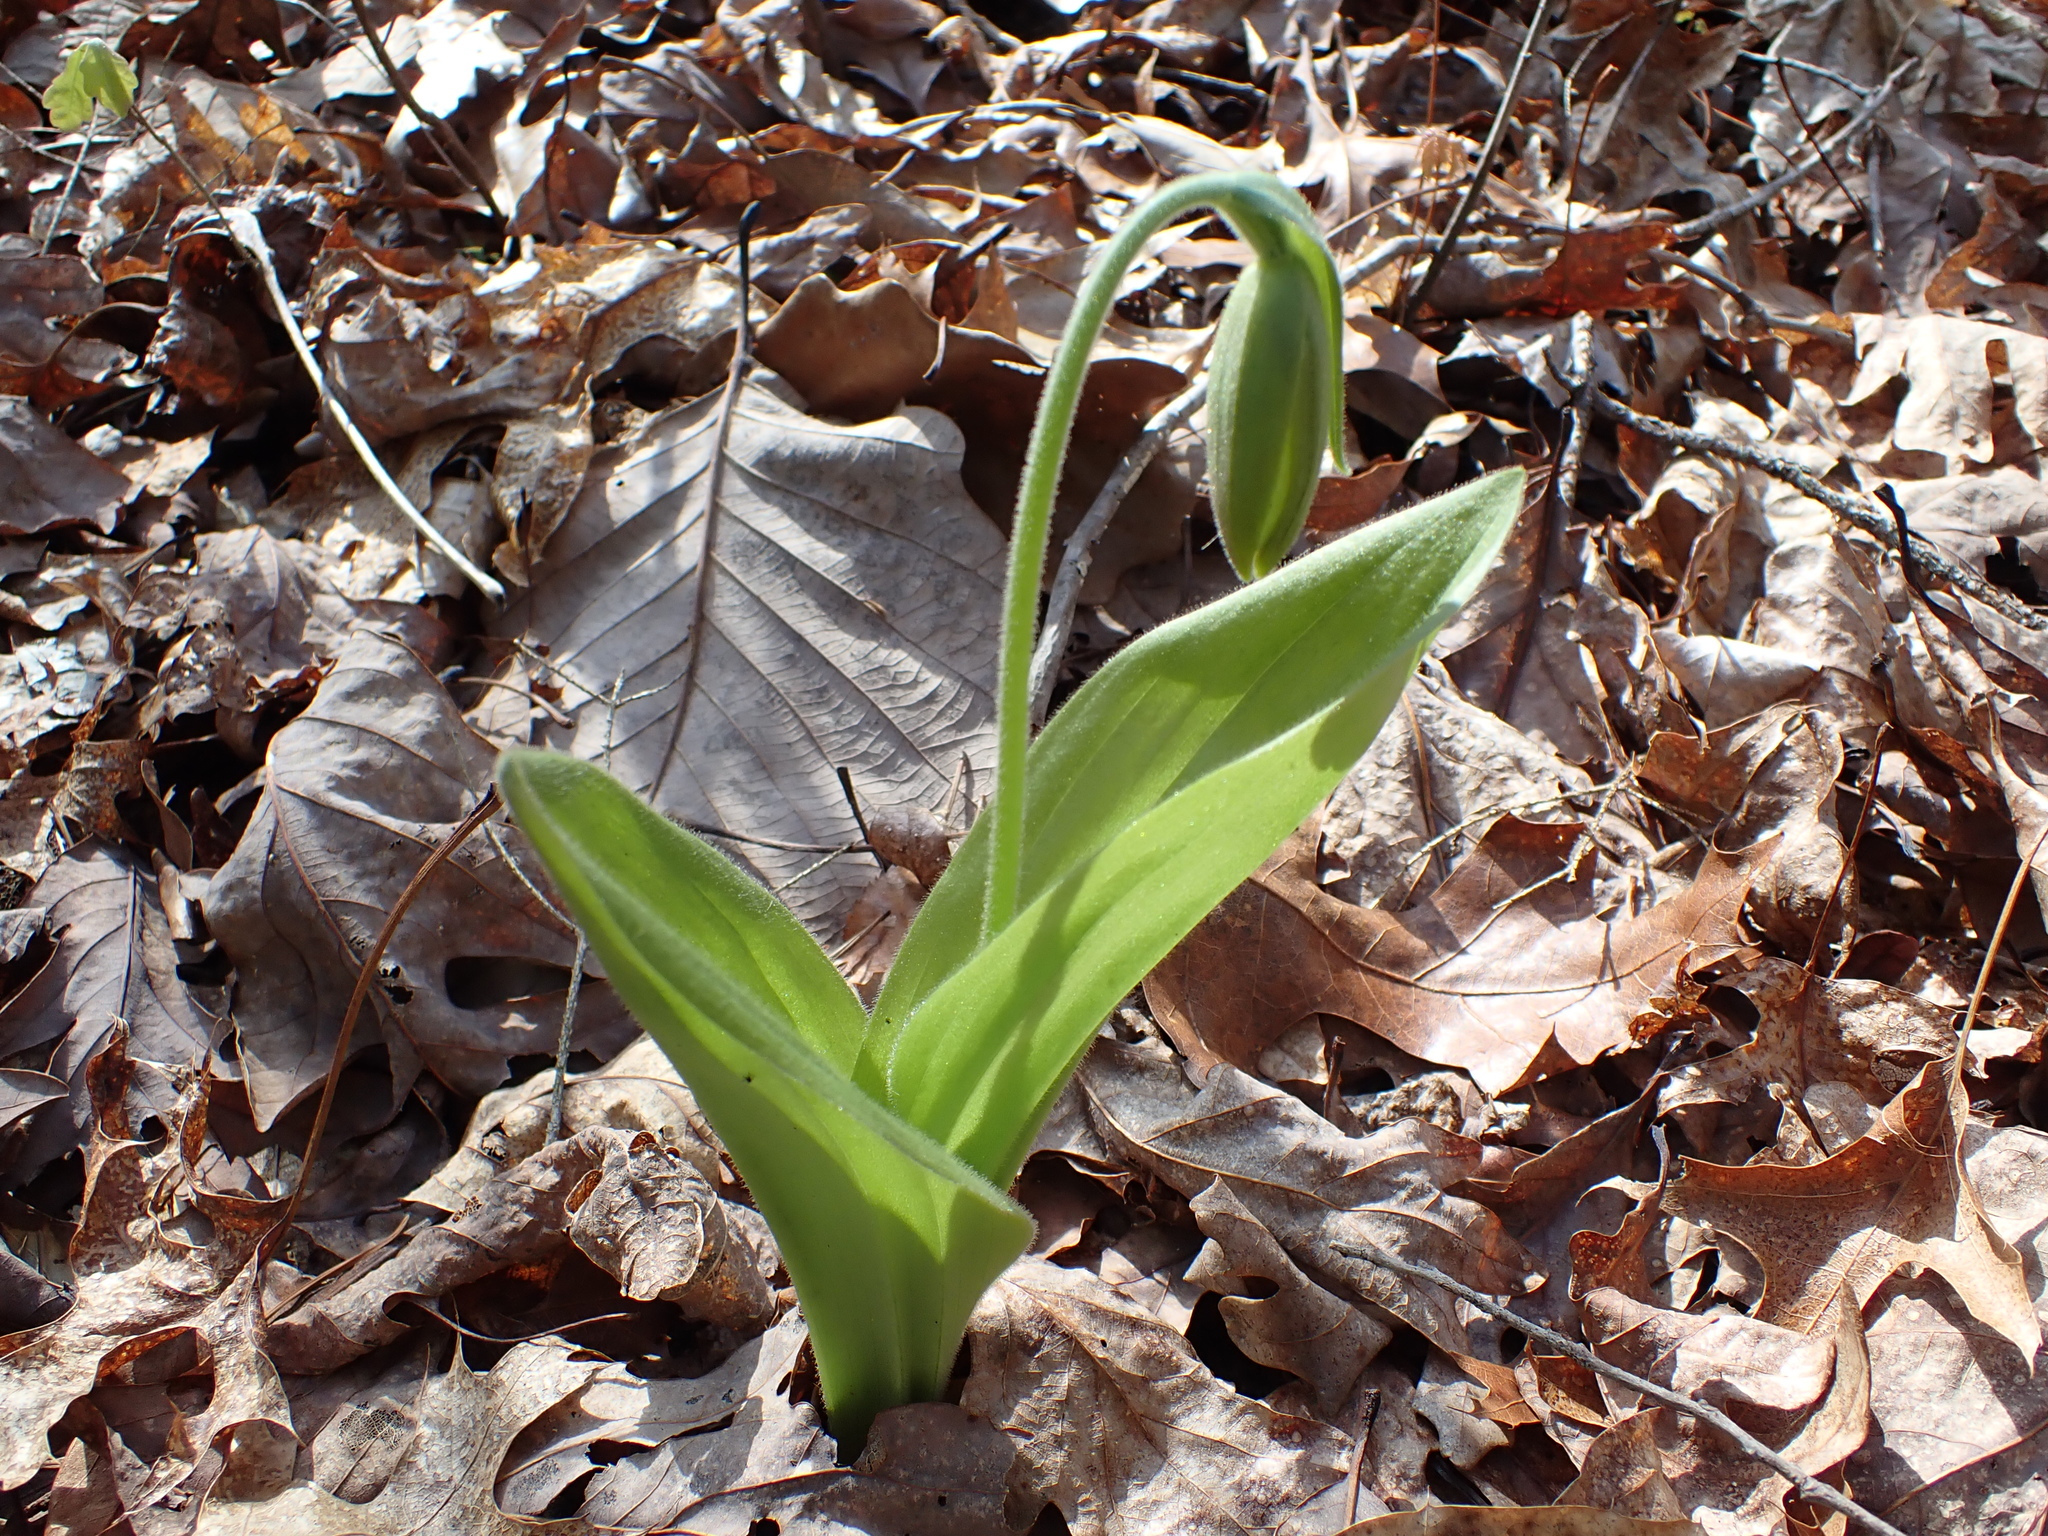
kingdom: Plantae
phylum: Tracheophyta
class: Liliopsida
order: Asparagales
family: Orchidaceae
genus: Cypripedium
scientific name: Cypripedium acaule
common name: Pink lady's-slipper
